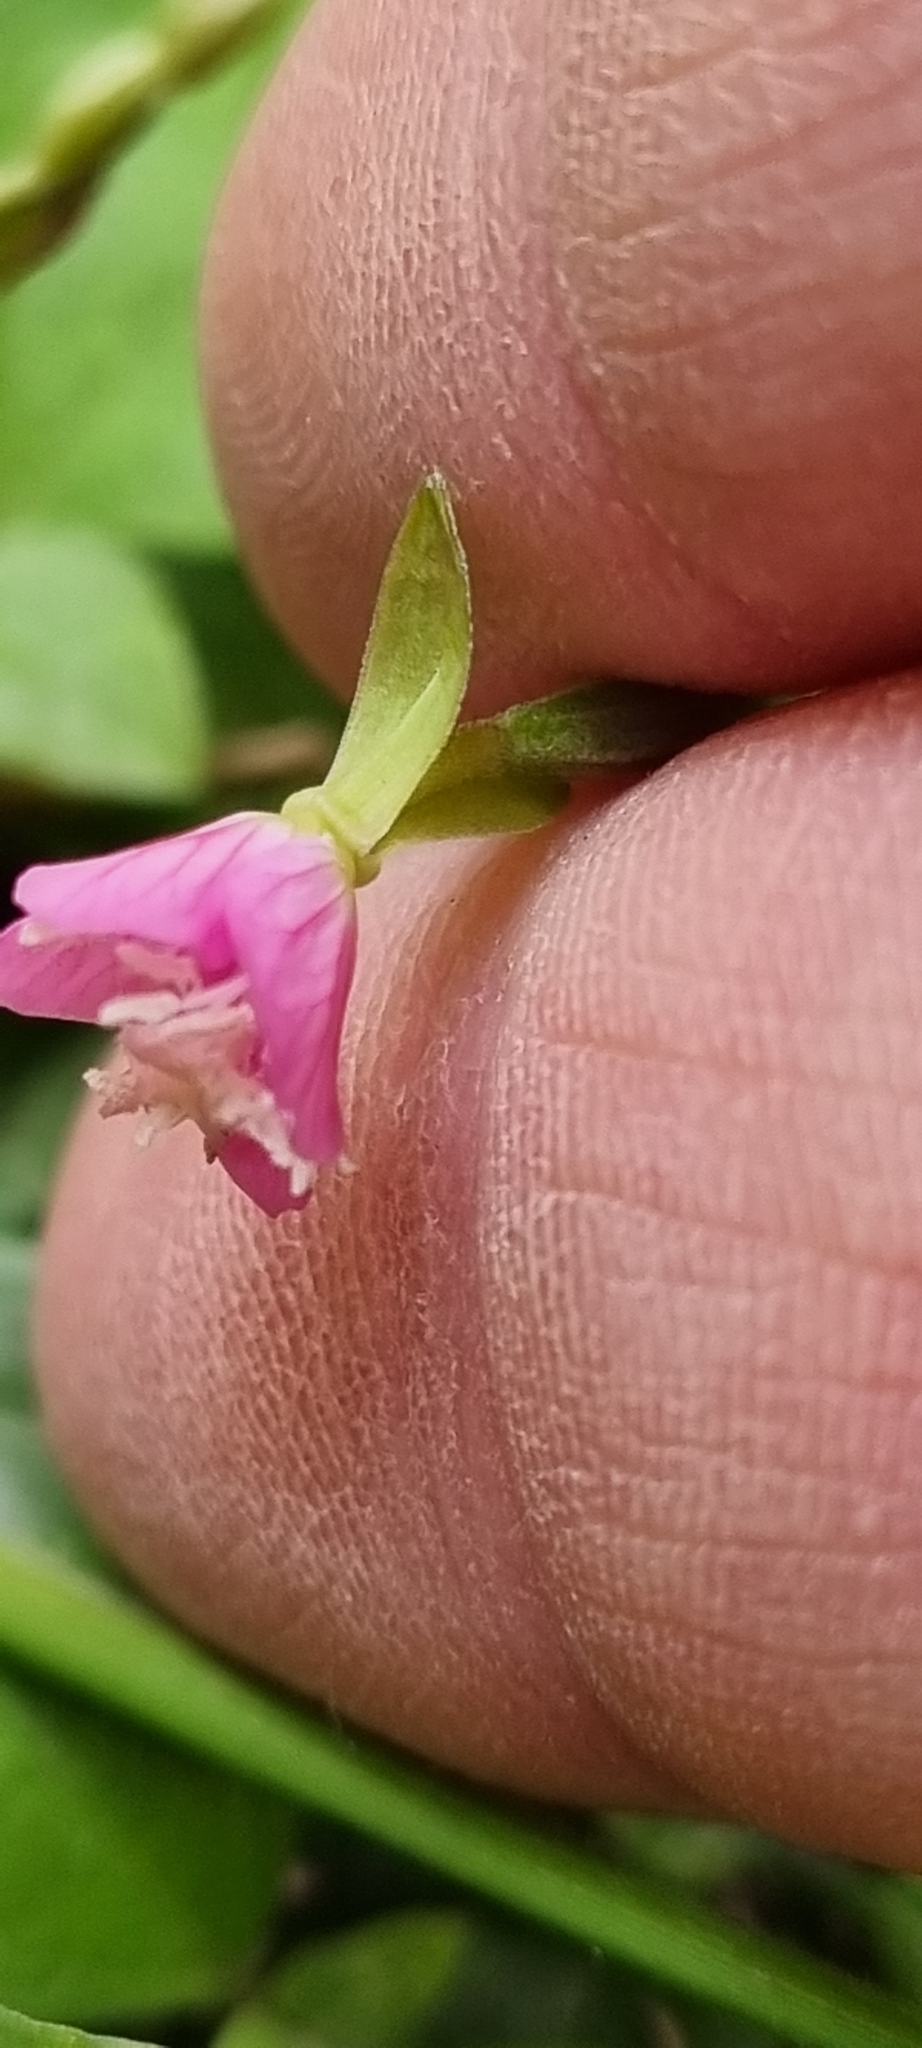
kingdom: Plantae
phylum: Tracheophyta
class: Magnoliopsida
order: Myrtales
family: Onagraceae
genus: Oenothera
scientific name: Oenothera rosea
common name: Rosy evening-primrose
